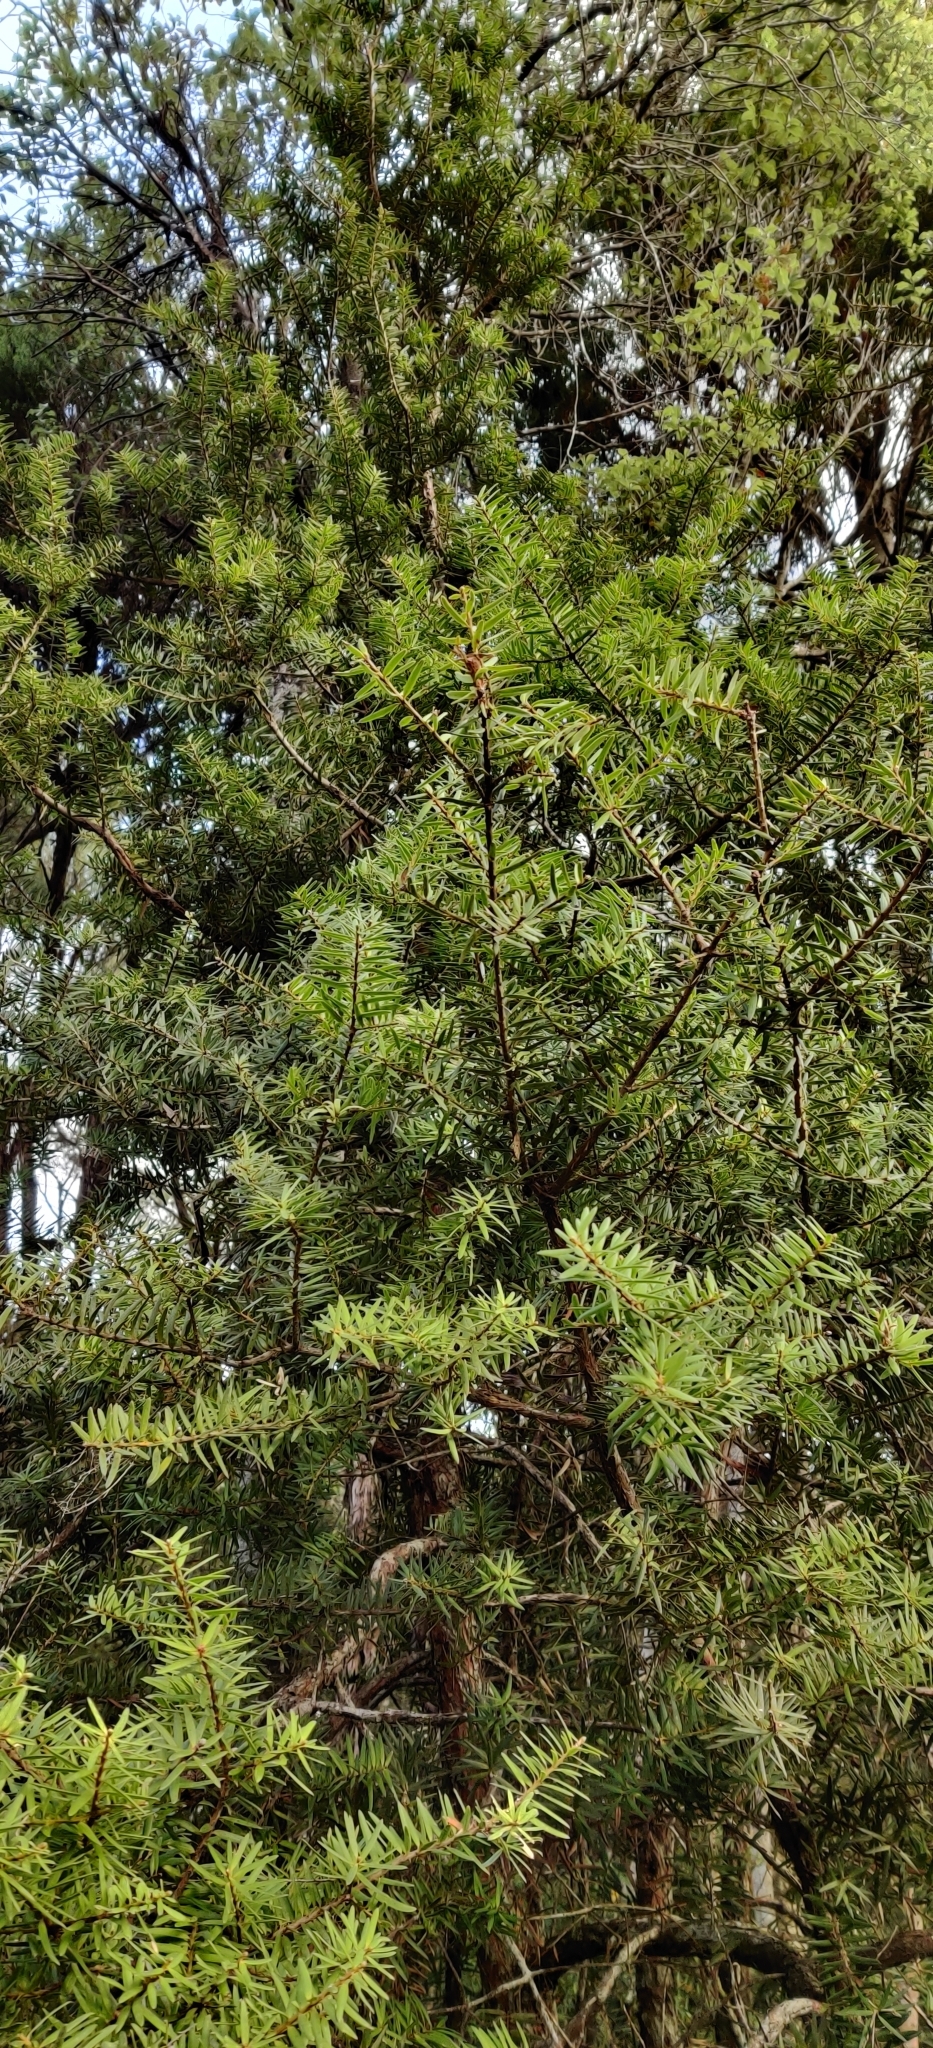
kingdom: Plantae
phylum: Tracheophyta
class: Pinopsida
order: Pinales
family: Podocarpaceae
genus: Podocarpus
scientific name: Podocarpus laetus
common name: Hall's totara
